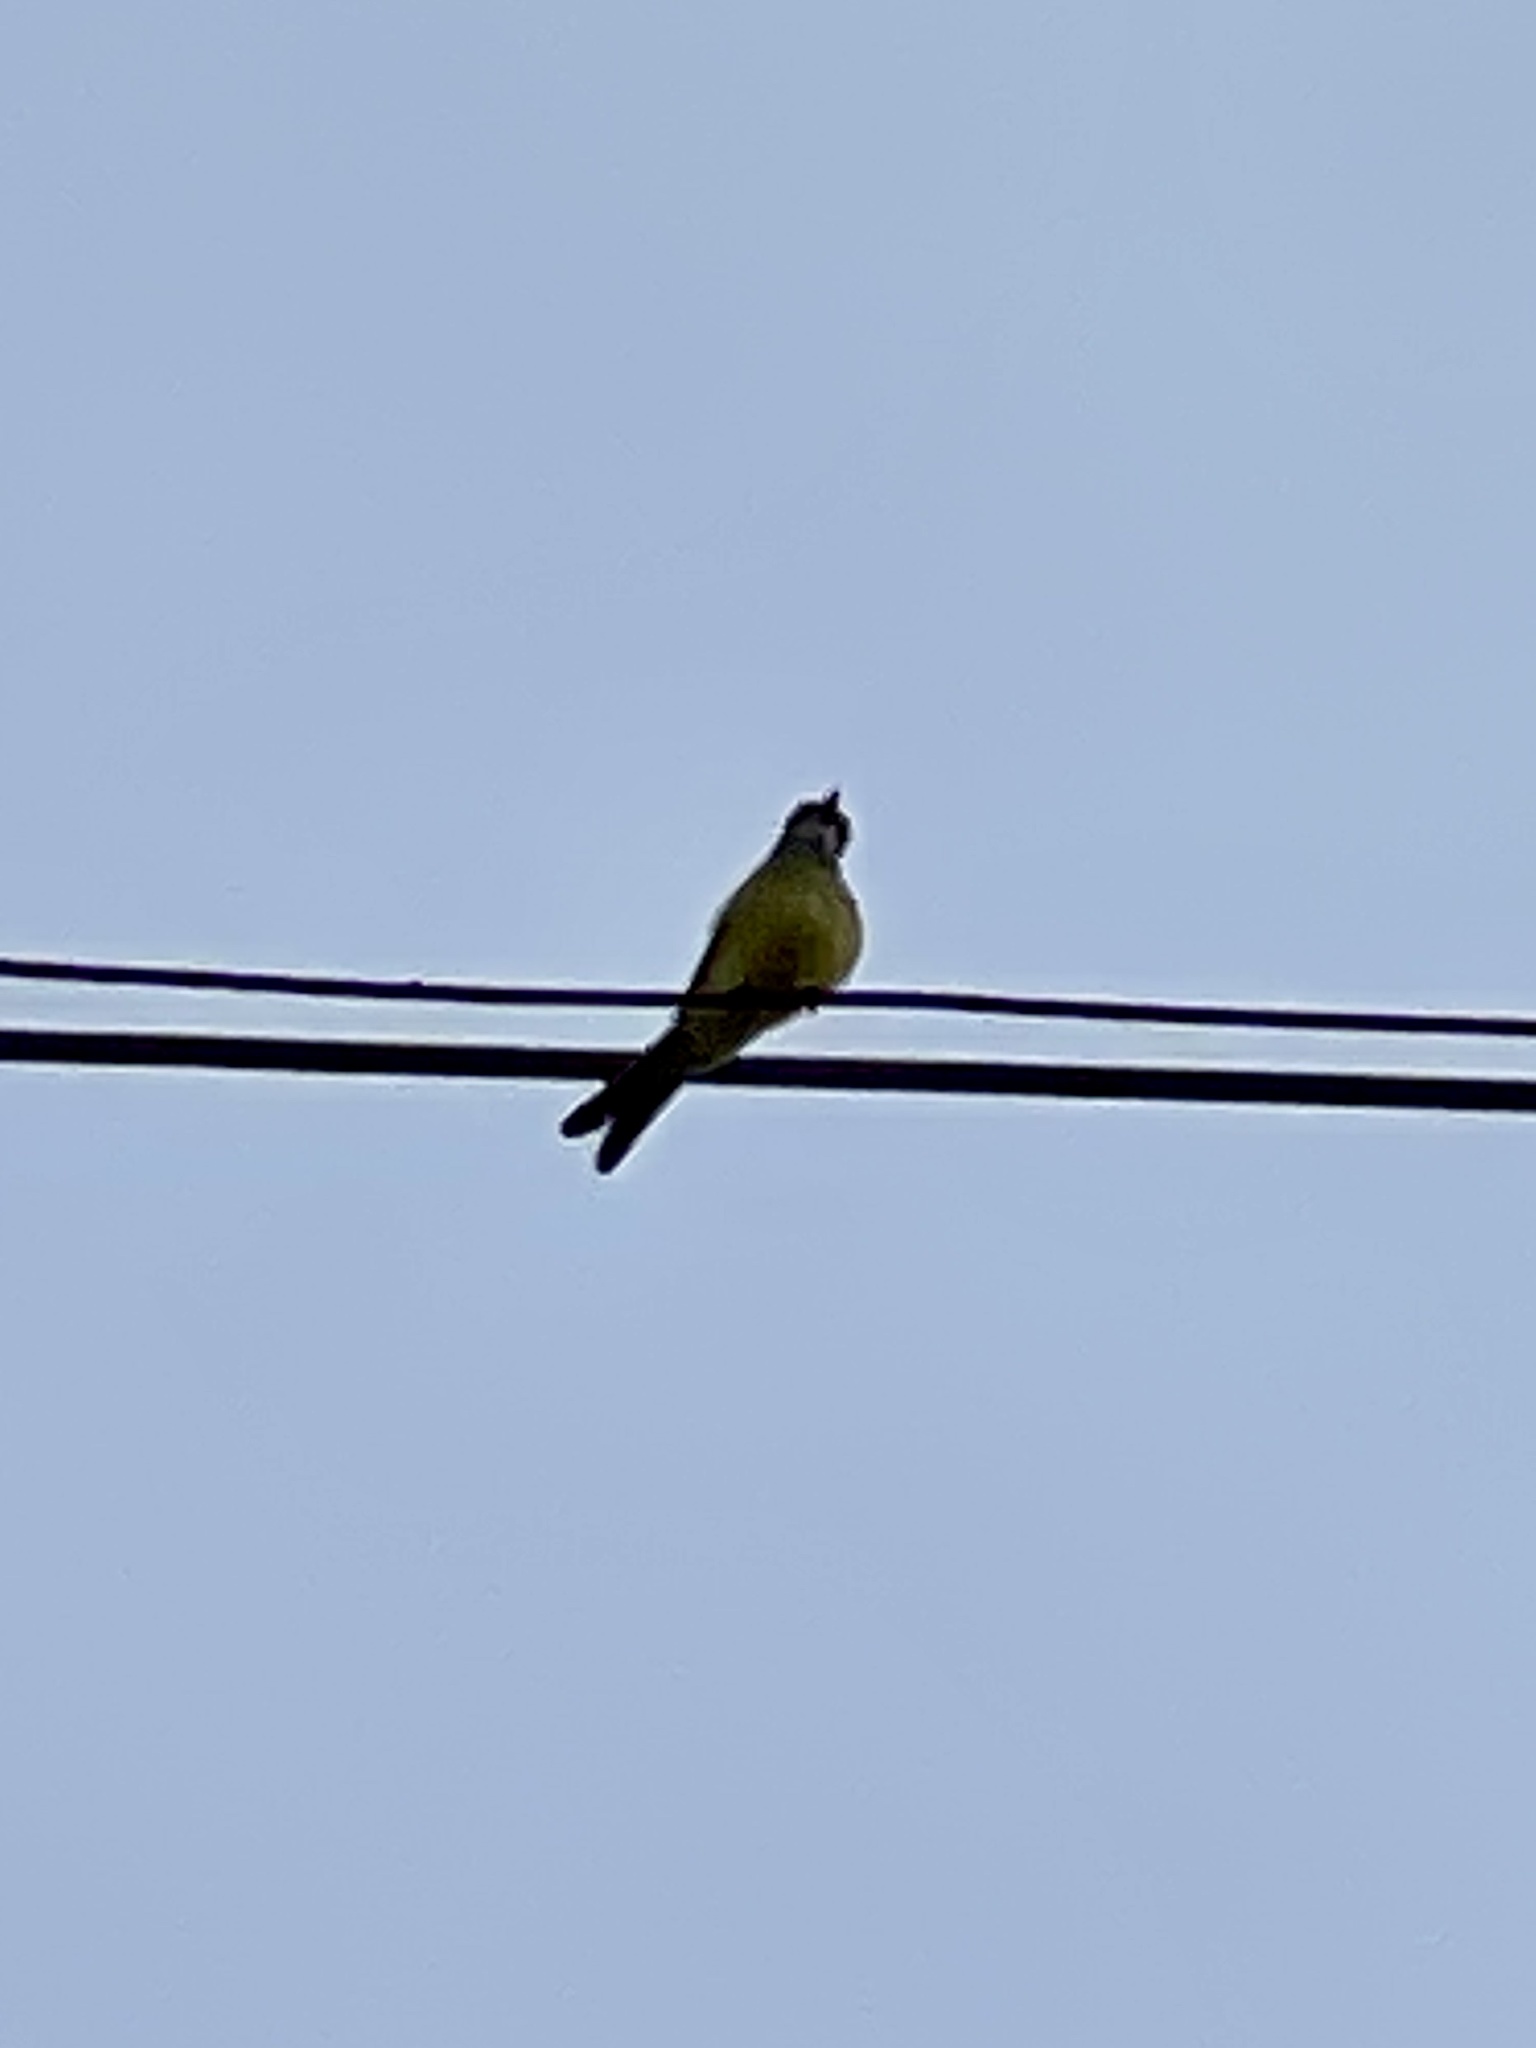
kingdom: Animalia
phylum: Chordata
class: Aves
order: Passeriformes
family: Tyrannidae
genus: Tyrannus
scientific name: Tyrannus melancholicus
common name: Tropical kingbird
